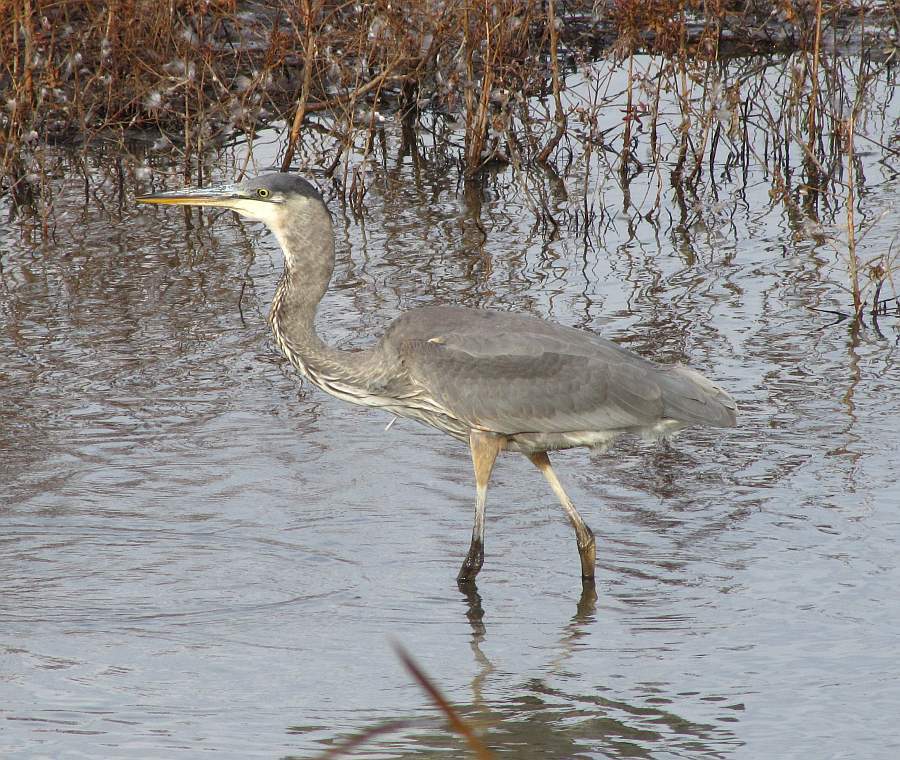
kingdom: Animalia
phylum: Chordata
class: Aves
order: Pelecaniformes
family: Ardeidae
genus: Ardea
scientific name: Ardea herodias
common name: Great blue heron
